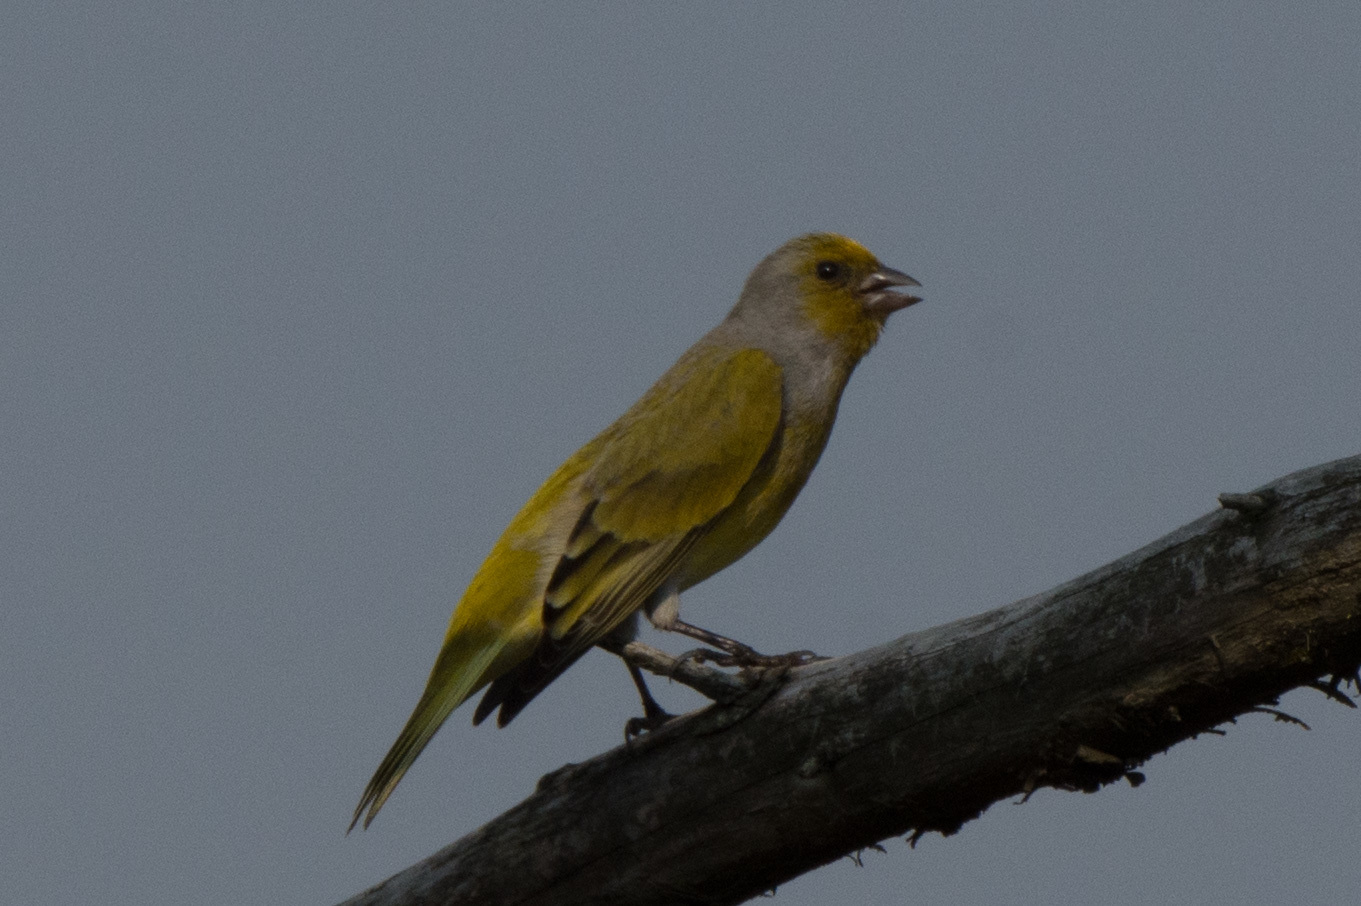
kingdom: Animalia
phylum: Chordata
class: Aves
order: Passeriformes
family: Fringillidae
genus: Serinus
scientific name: Serinus canicollis
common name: Cape canary
